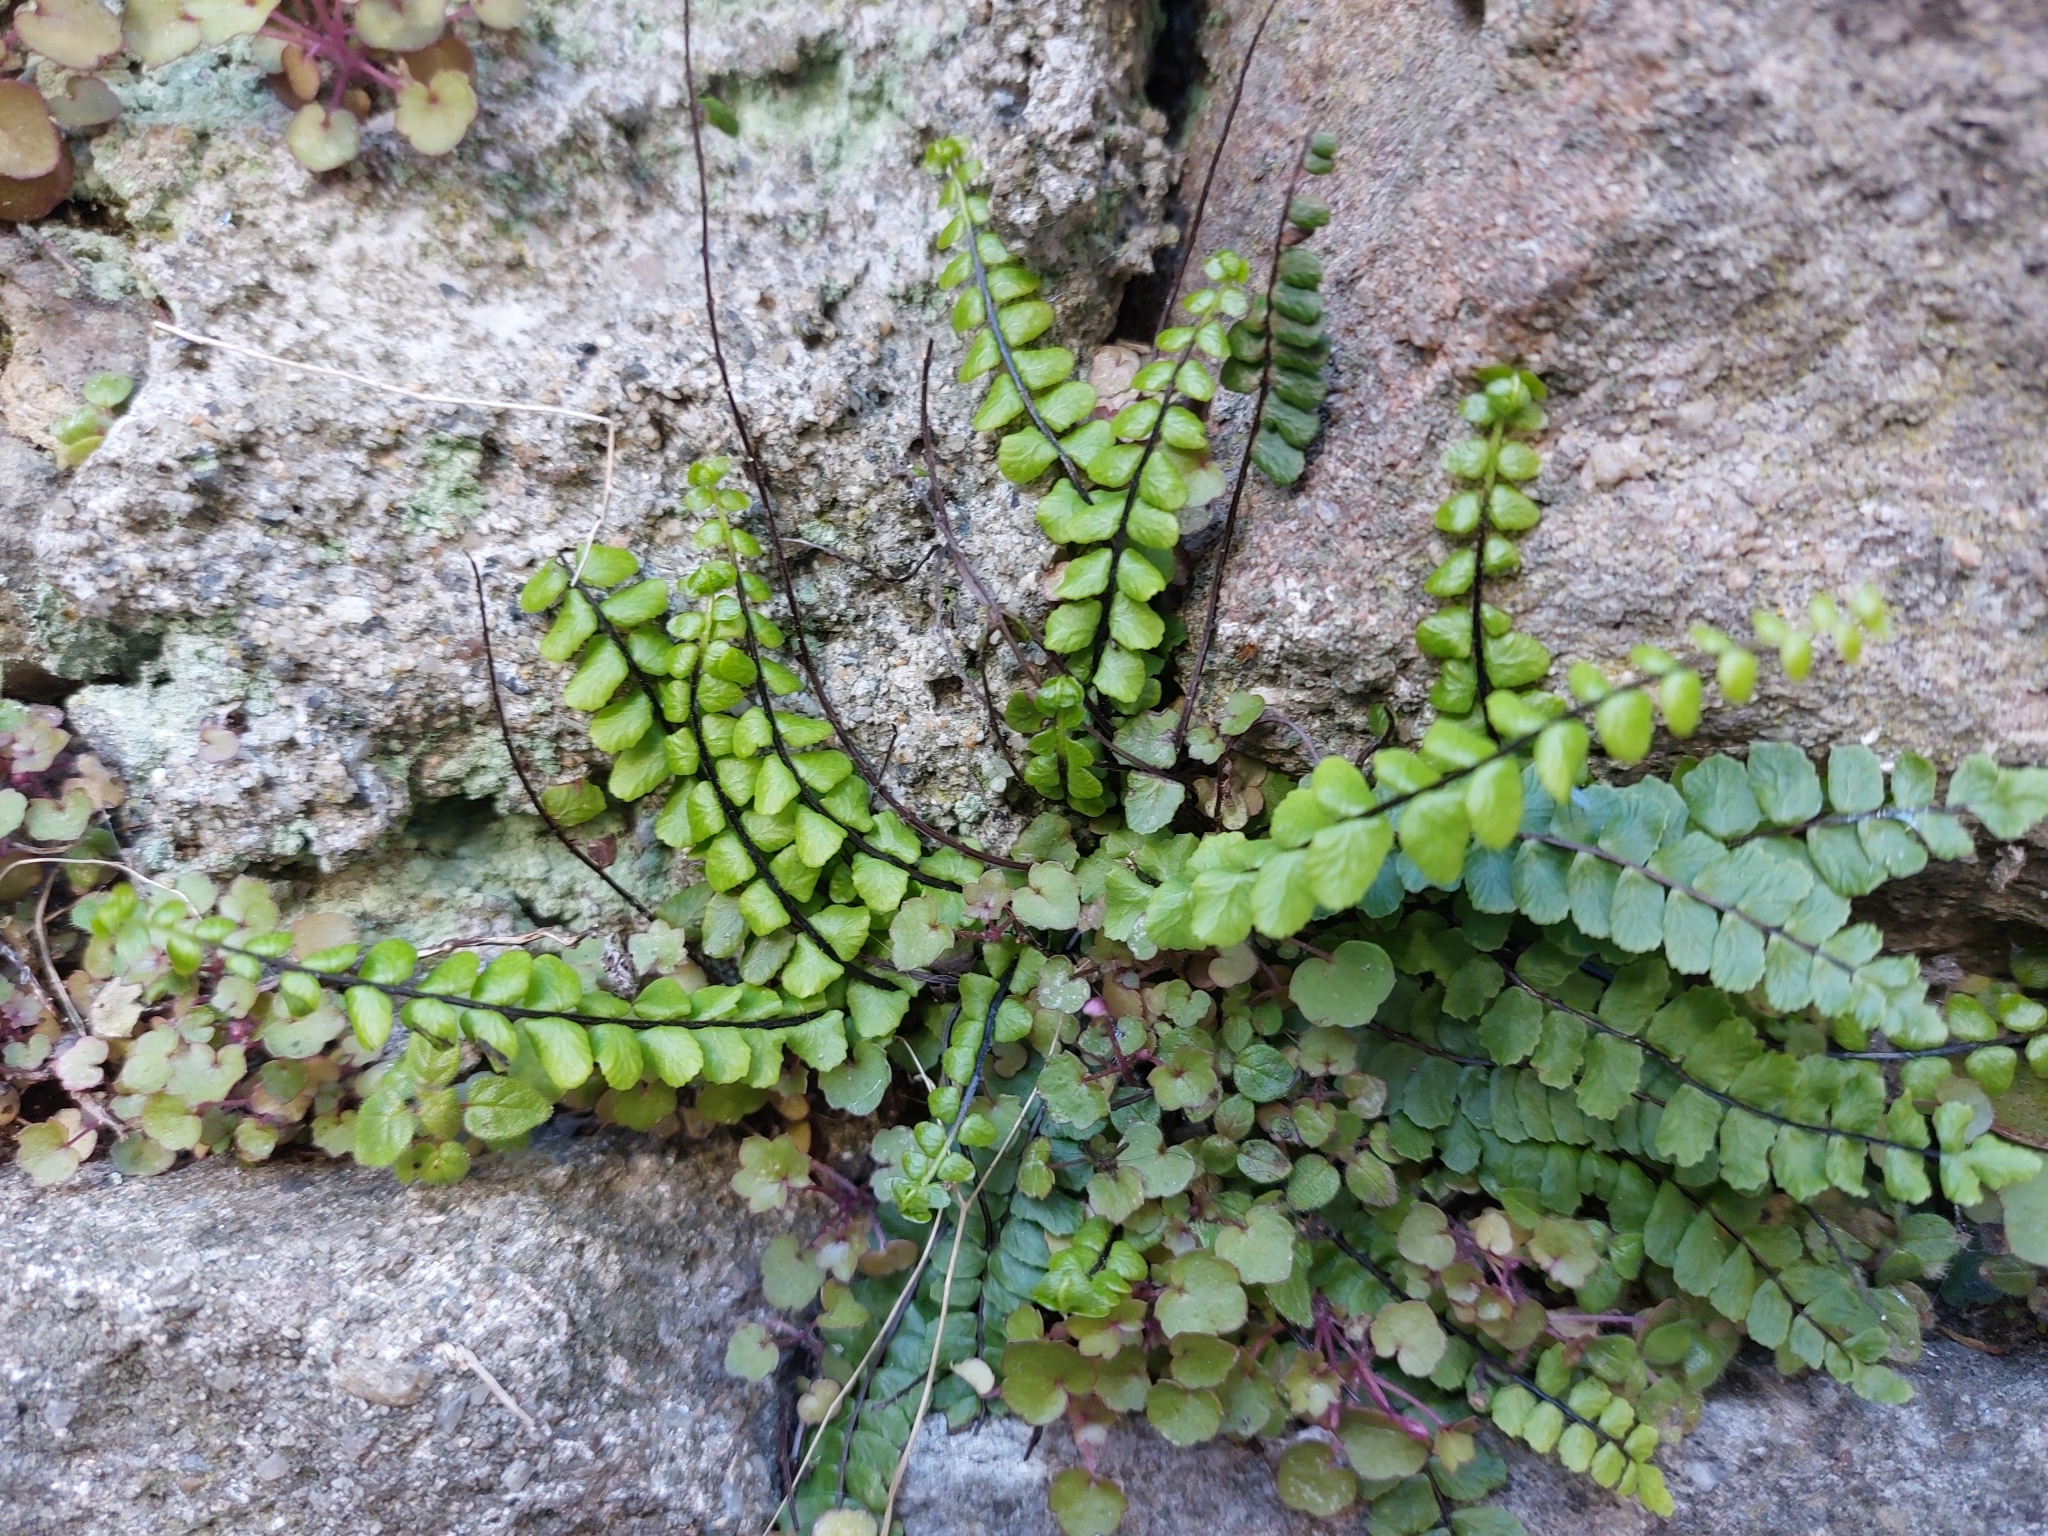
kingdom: Plantae
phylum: Tracheophyta
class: Polypodiopsida
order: Polypodiales
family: Aspleniaceae
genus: Asplenium
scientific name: Asplenium trichomanes
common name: Maidenhair spleenwort
